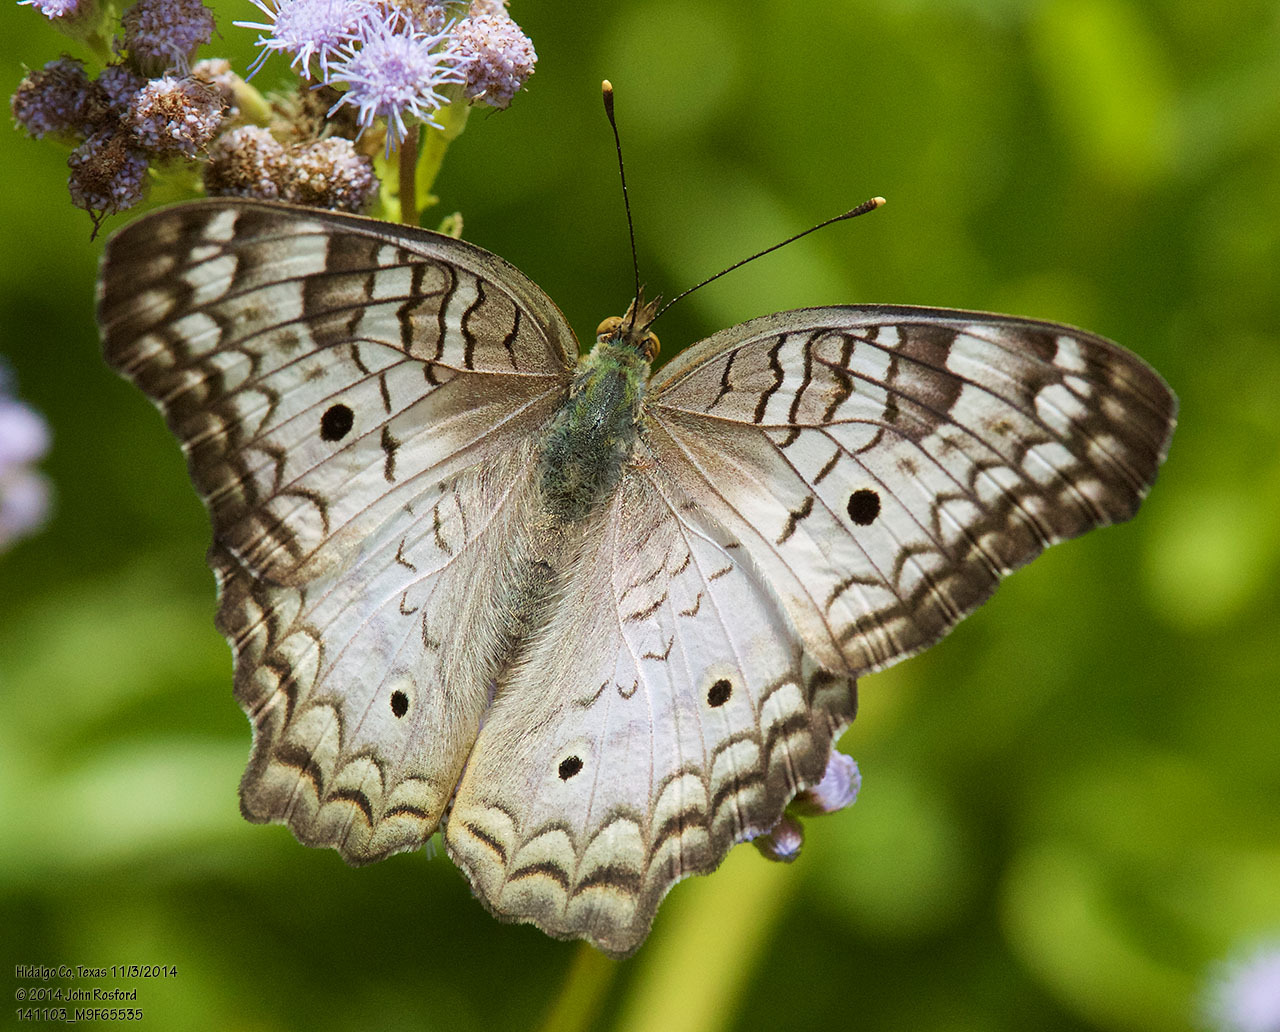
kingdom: Animalia
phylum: Arthropoda
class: Insecta
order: Lepidoptera
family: Nymphalidae
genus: Anartia
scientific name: Anartia jatrophae
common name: White peacock
